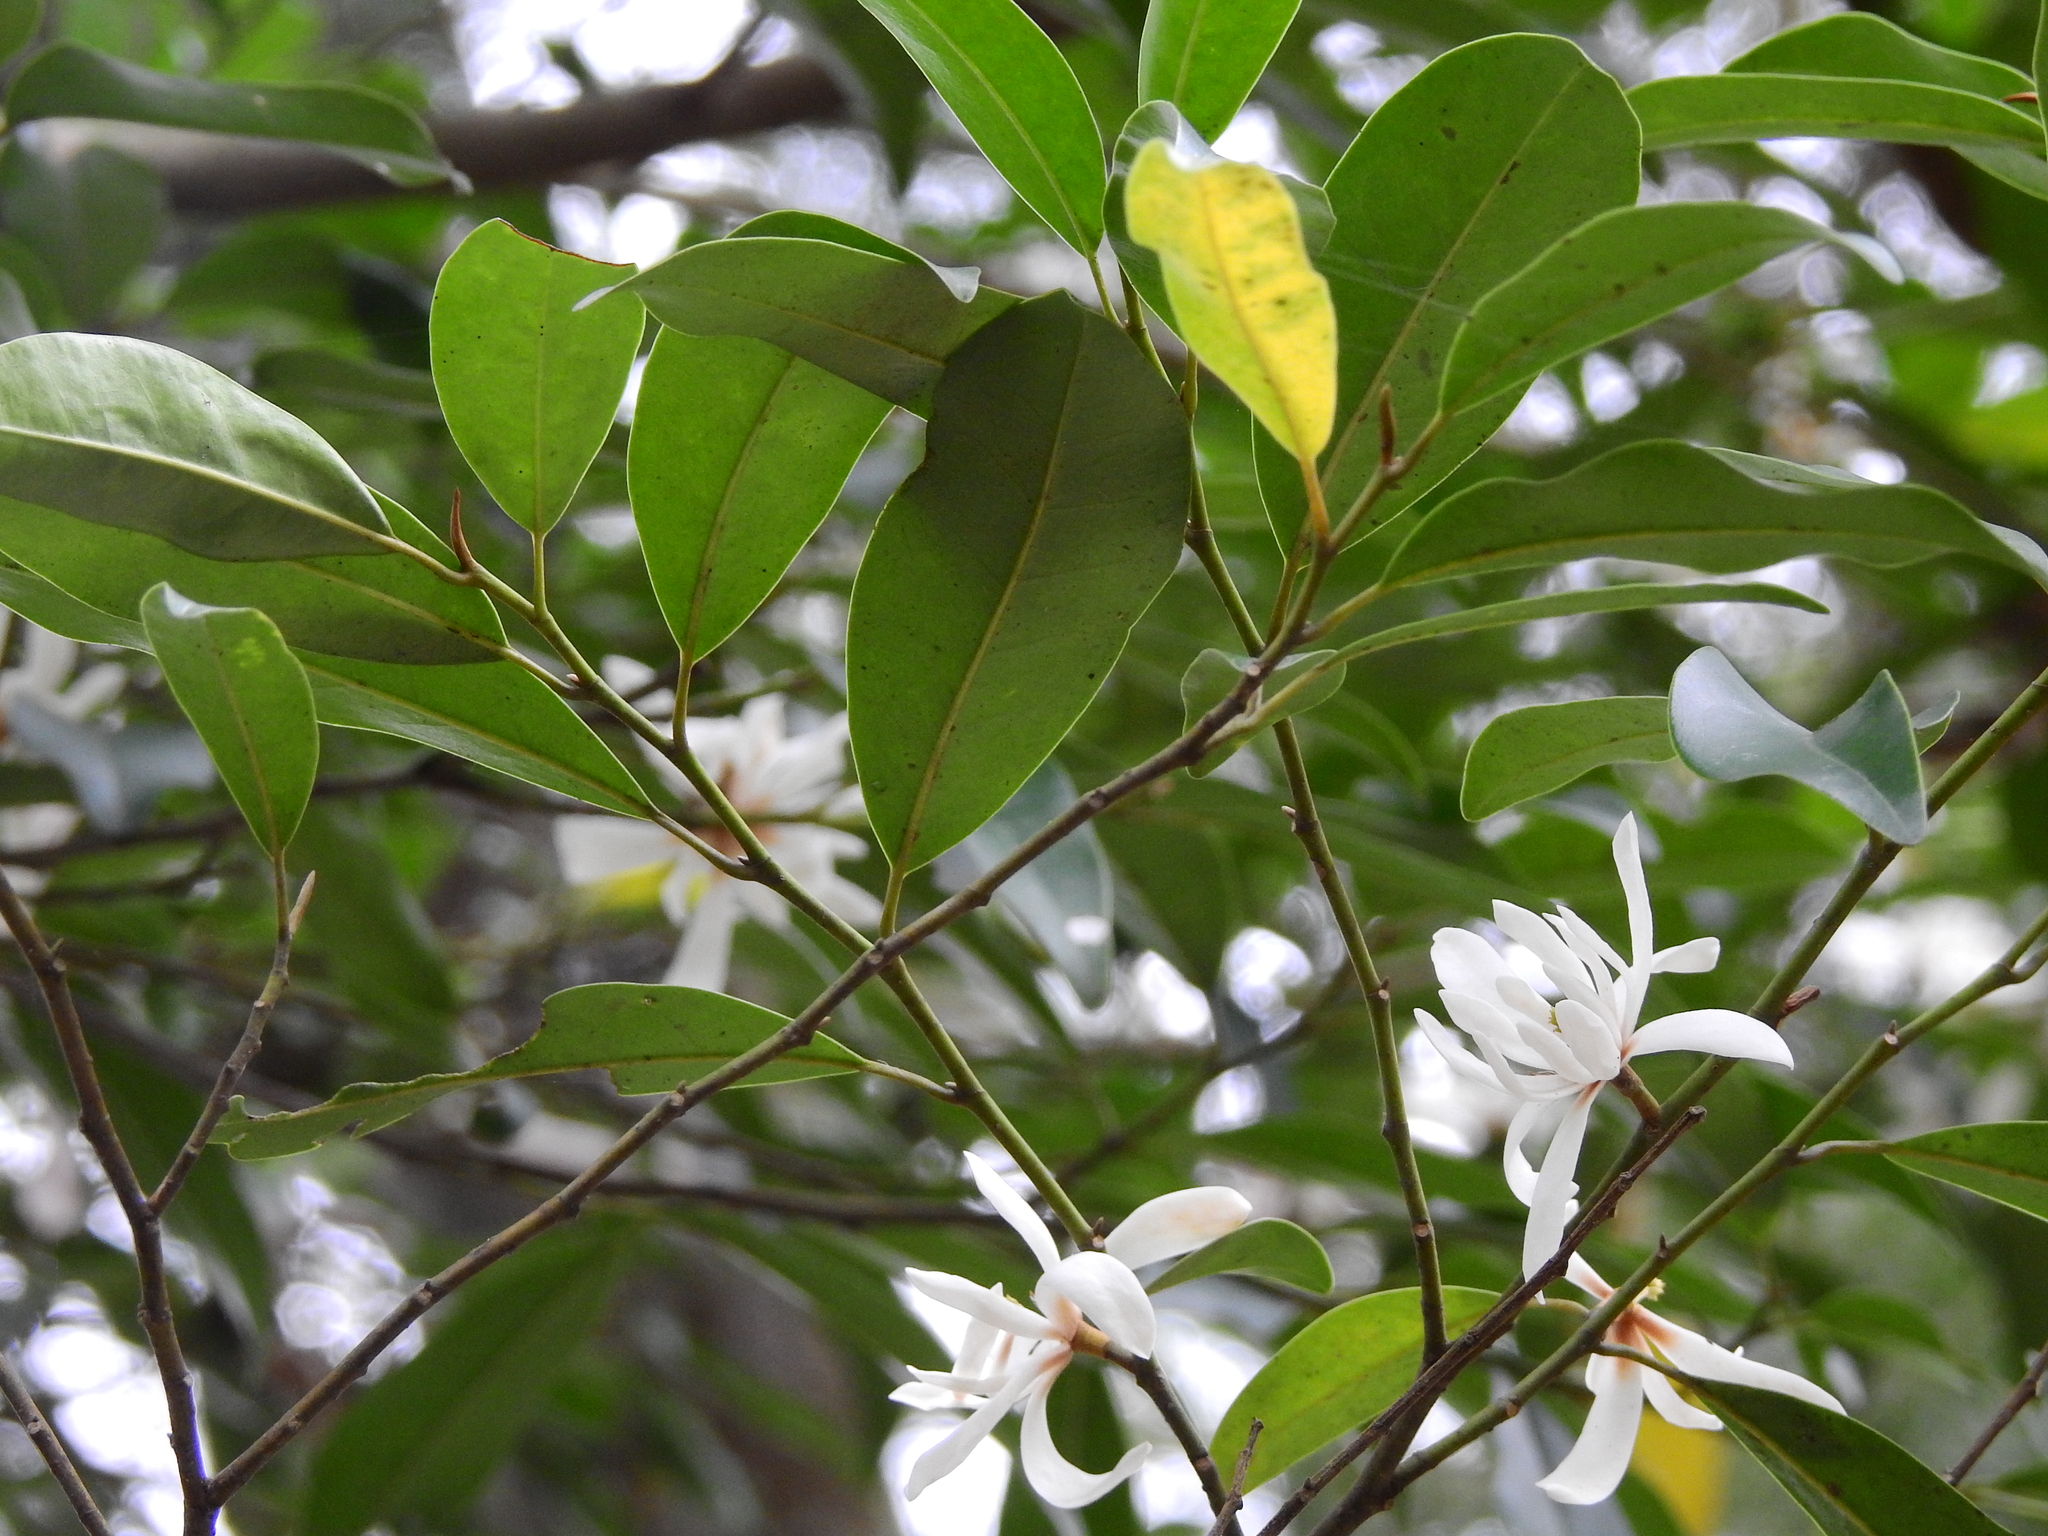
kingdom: Plantae
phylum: Tracheophyta
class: Magnoliopsida
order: Magnoliales
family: Magnoliaceae
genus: Magnolia
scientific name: Magnolia compressa
